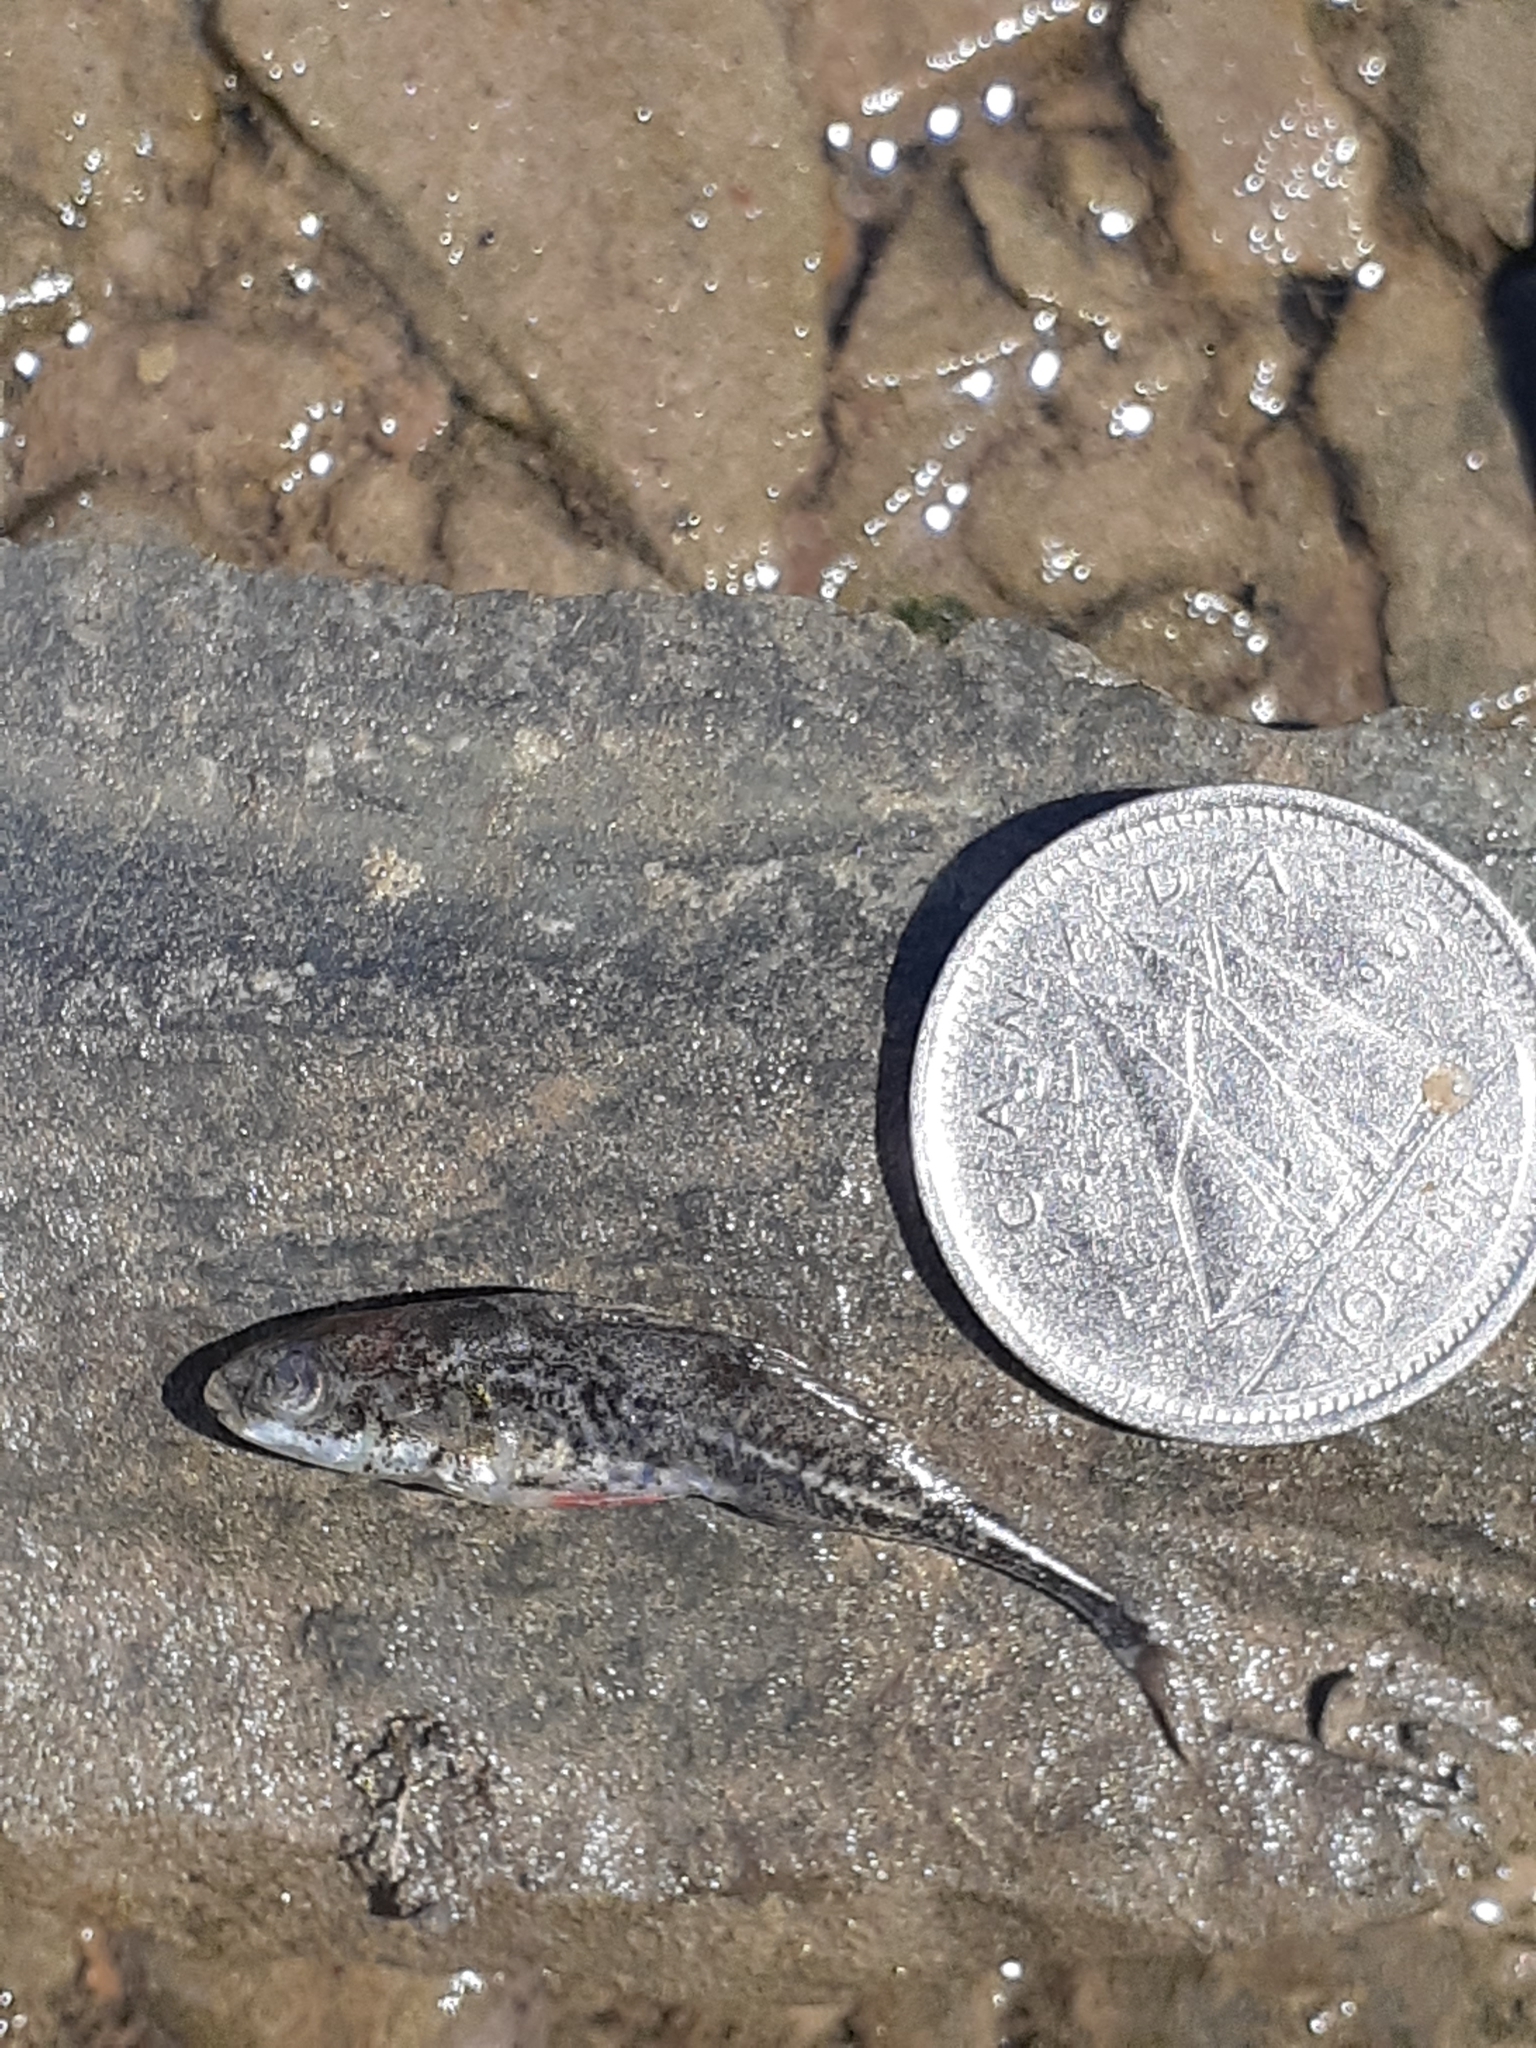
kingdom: Animalia
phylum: Chordata
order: Gasterosteiformes
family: Gasterosteidae
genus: Apeltes
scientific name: Apeltes quadracus
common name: Fourspine stickleback
